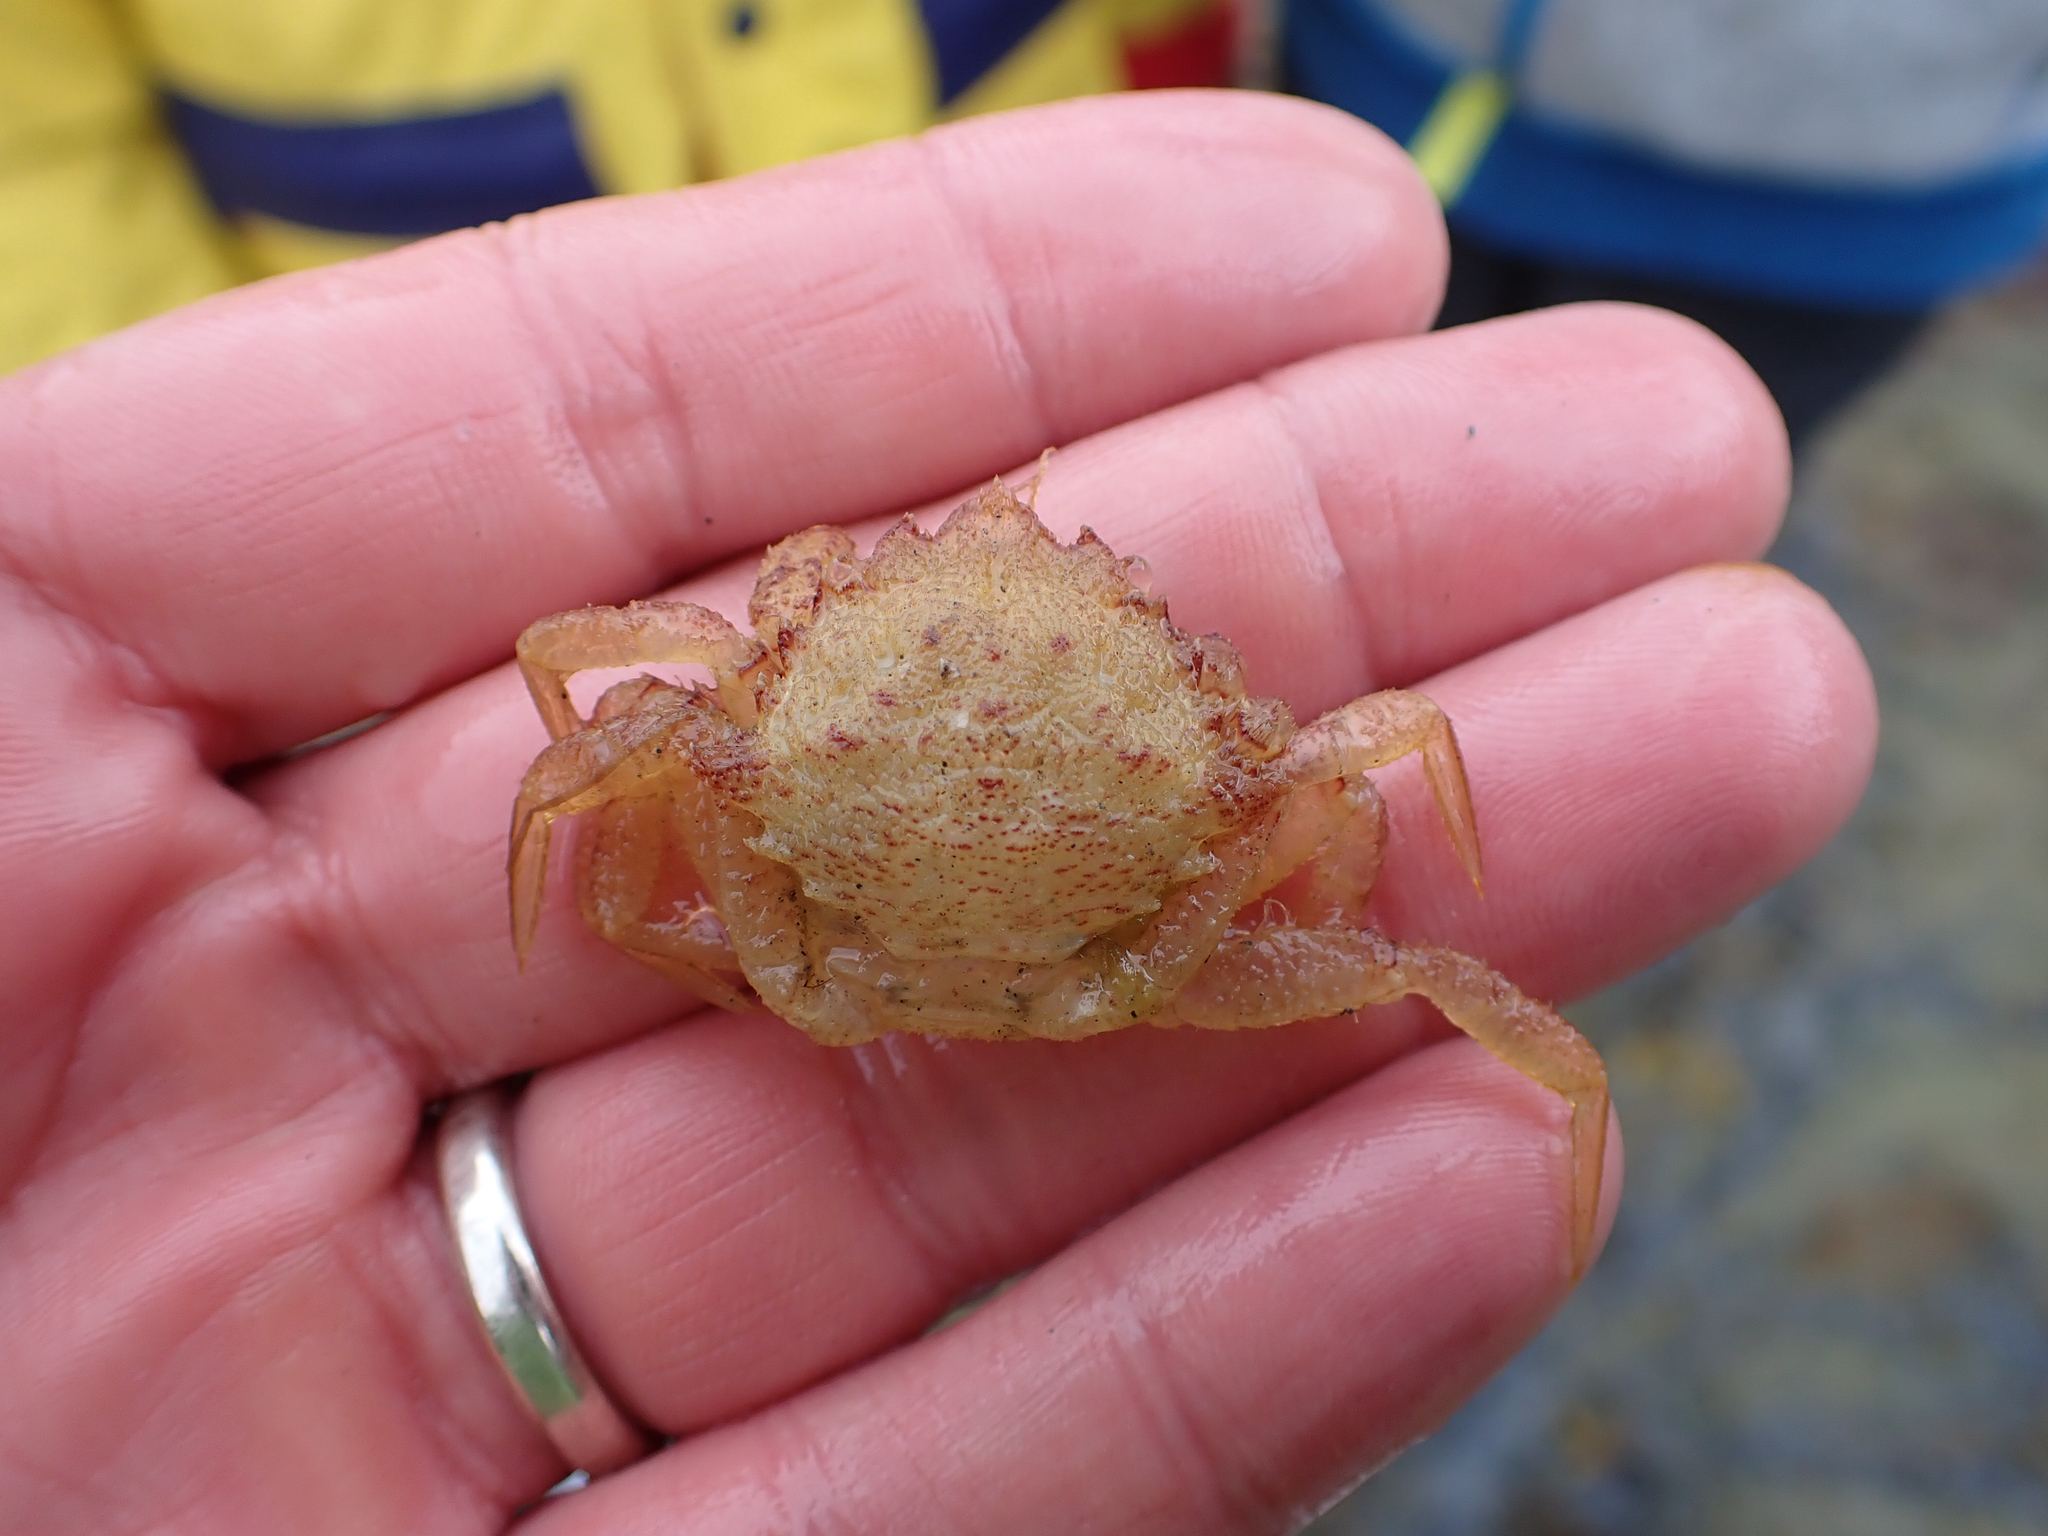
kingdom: Animalia
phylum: Arthropoda
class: Malacostraca
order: Decapoda
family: Cheiragonidae
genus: Telmessus
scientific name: Telmessus cheiragonus
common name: Helmet crab
